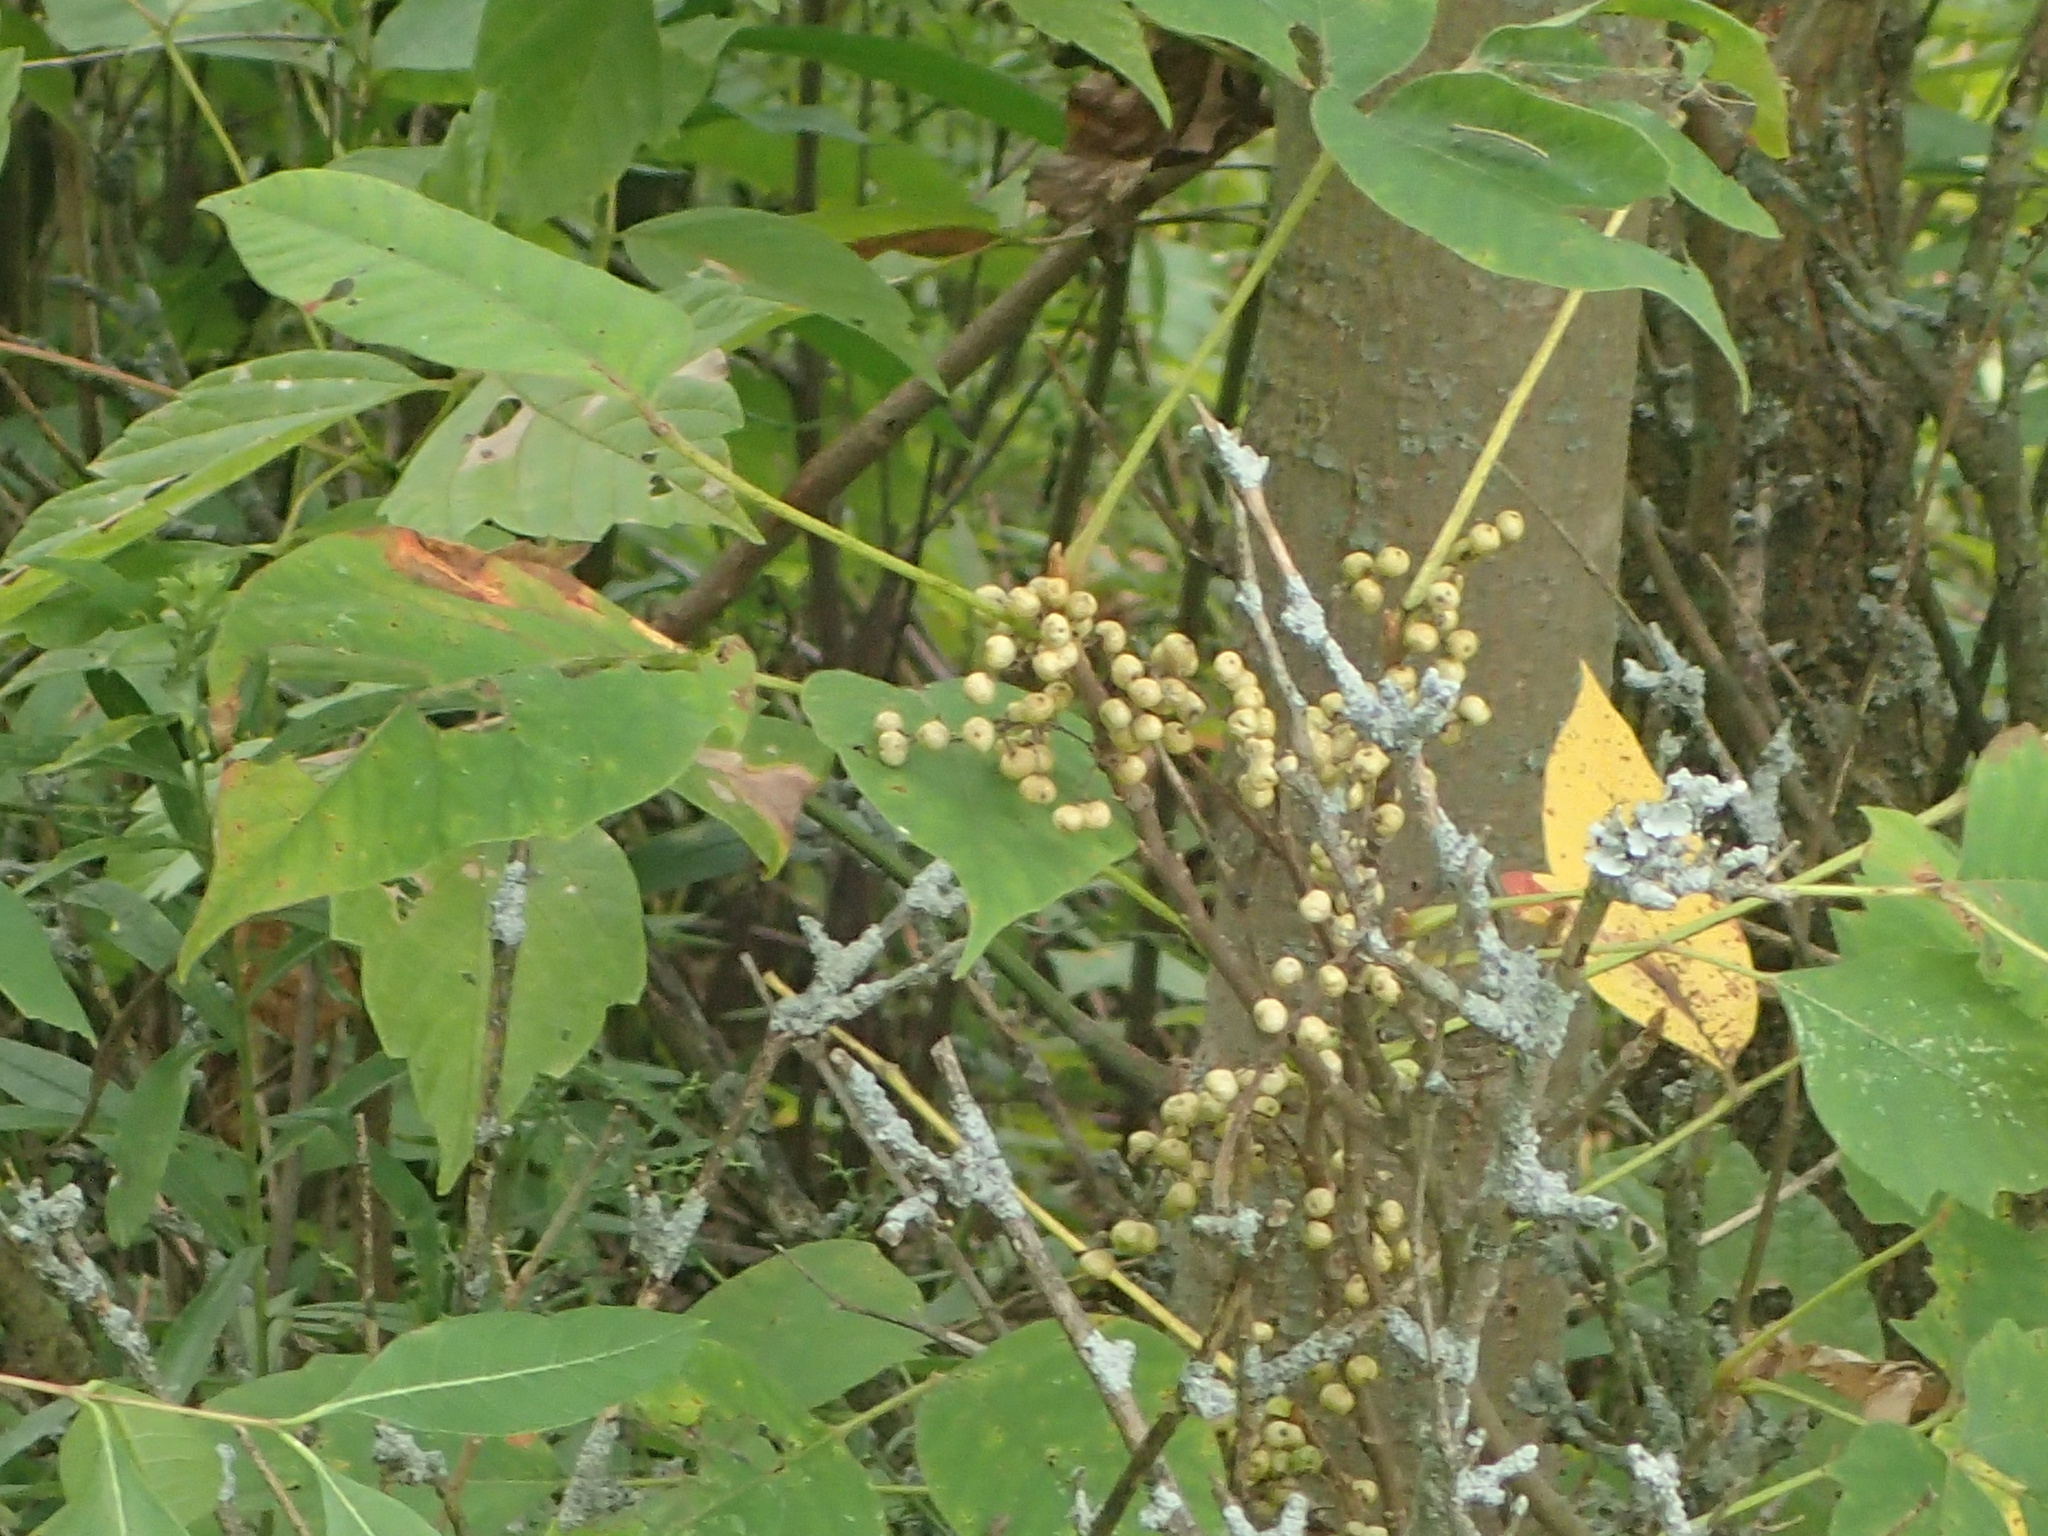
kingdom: Plantae
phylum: Tracheophyta
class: Magnoliopsida
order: Sapindales
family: Anacardiaceae
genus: Toxicodendron
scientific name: Toxicodendron radicans
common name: Poison ivy
